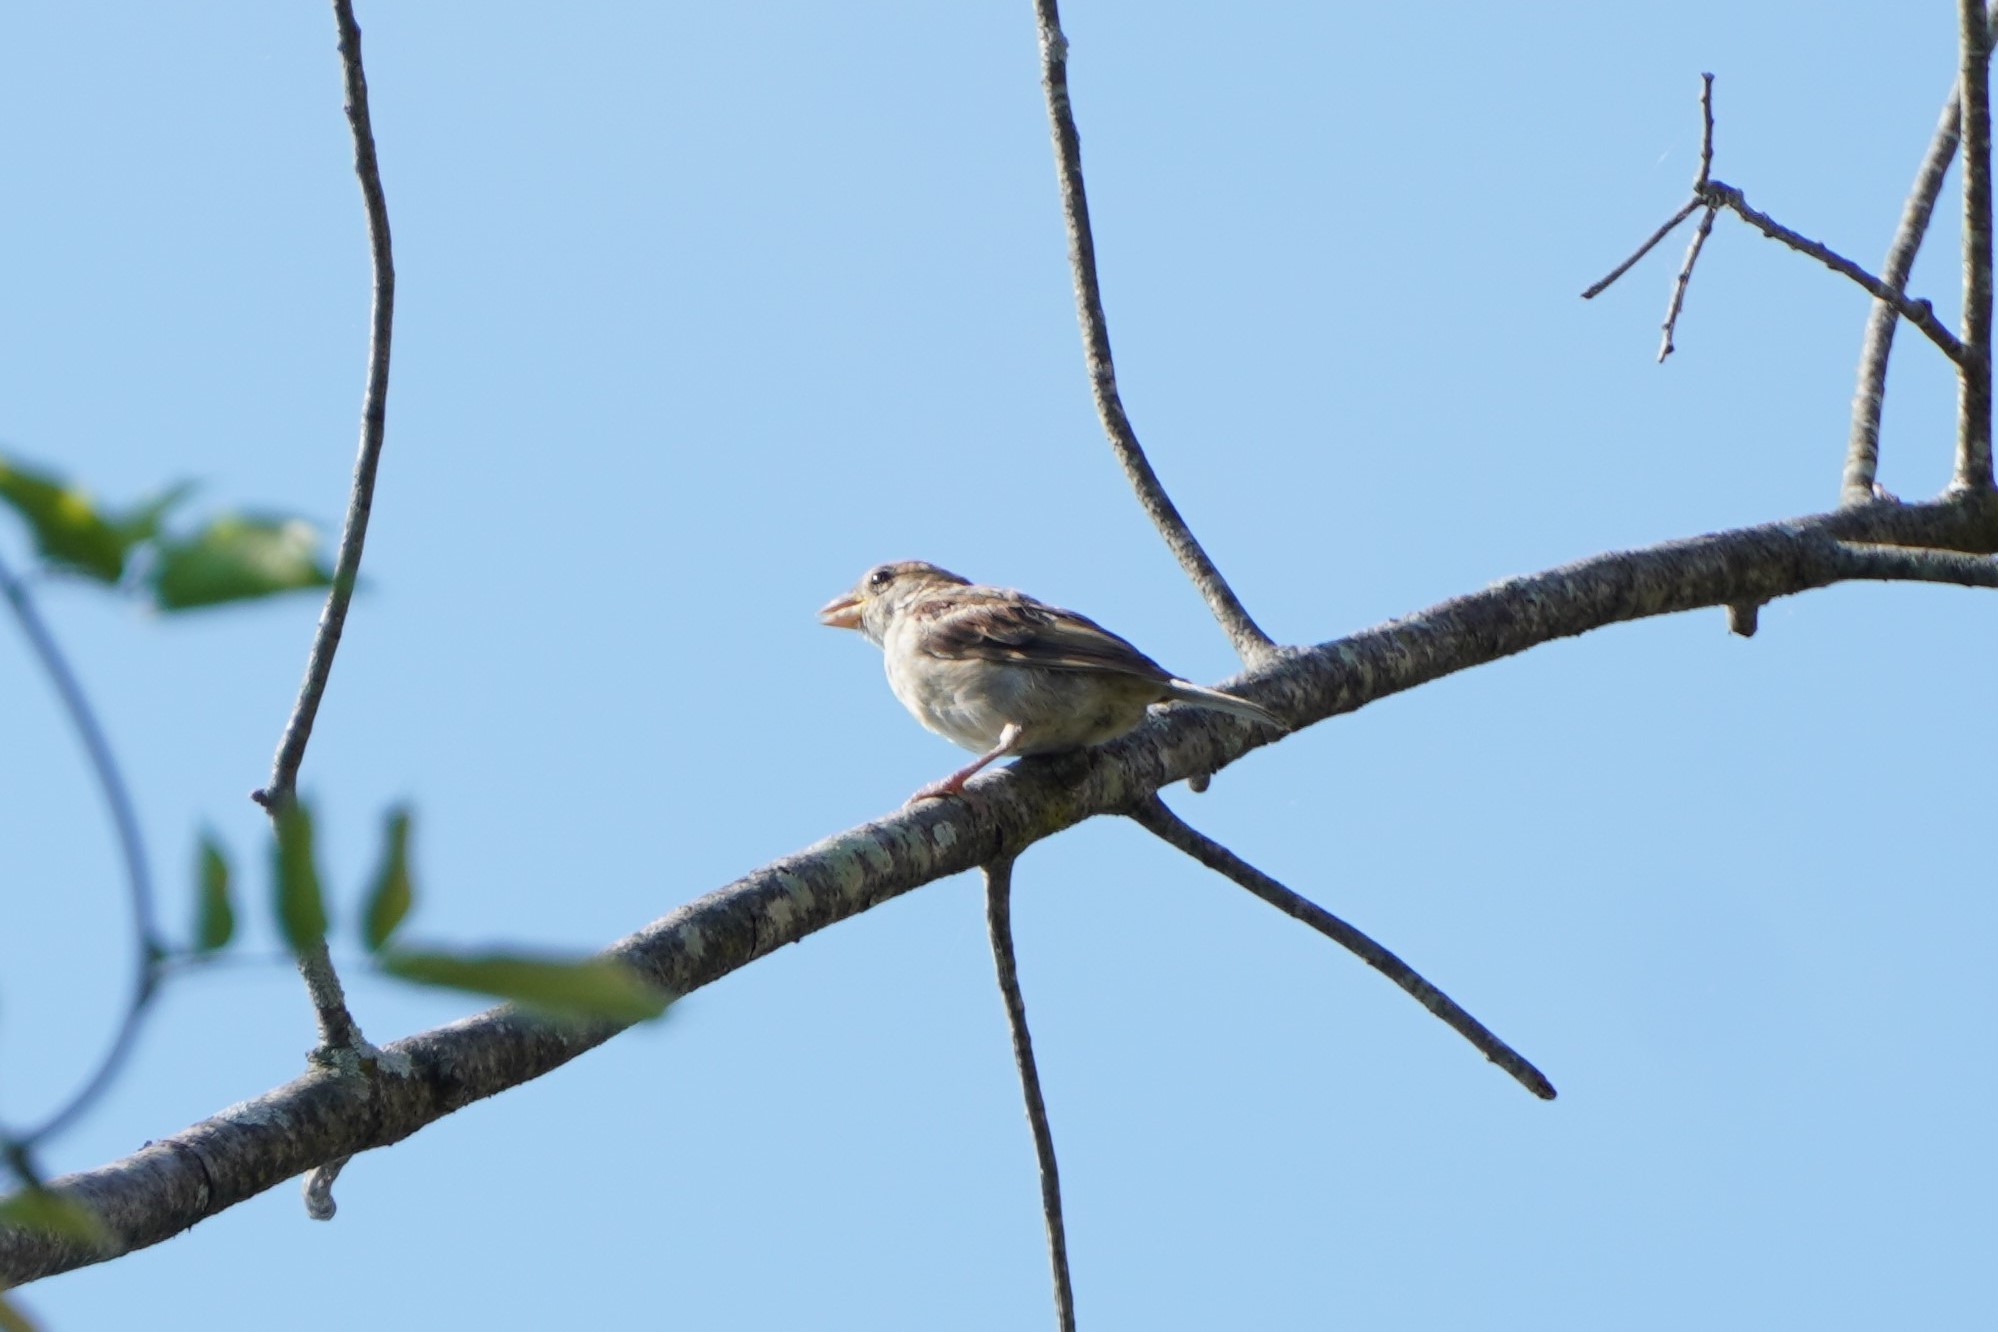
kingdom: Animalia
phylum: Chordata
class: Aves
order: Passeriformes
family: Passeridae
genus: Passer
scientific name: Passer domesticus
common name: House sparrow
